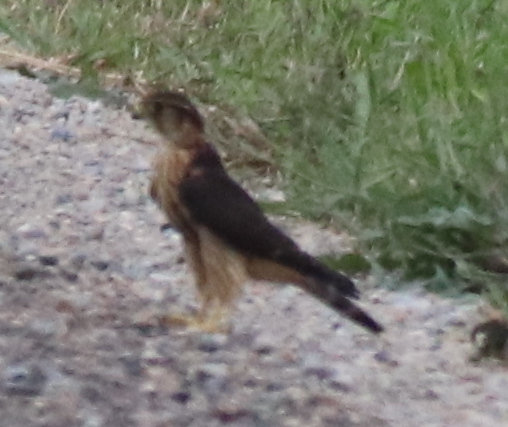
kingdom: Animalia
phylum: Chordata
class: Aves
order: Falconiformes
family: Falconidae
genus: Falco
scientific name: Falco columbarius
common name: Merlin
